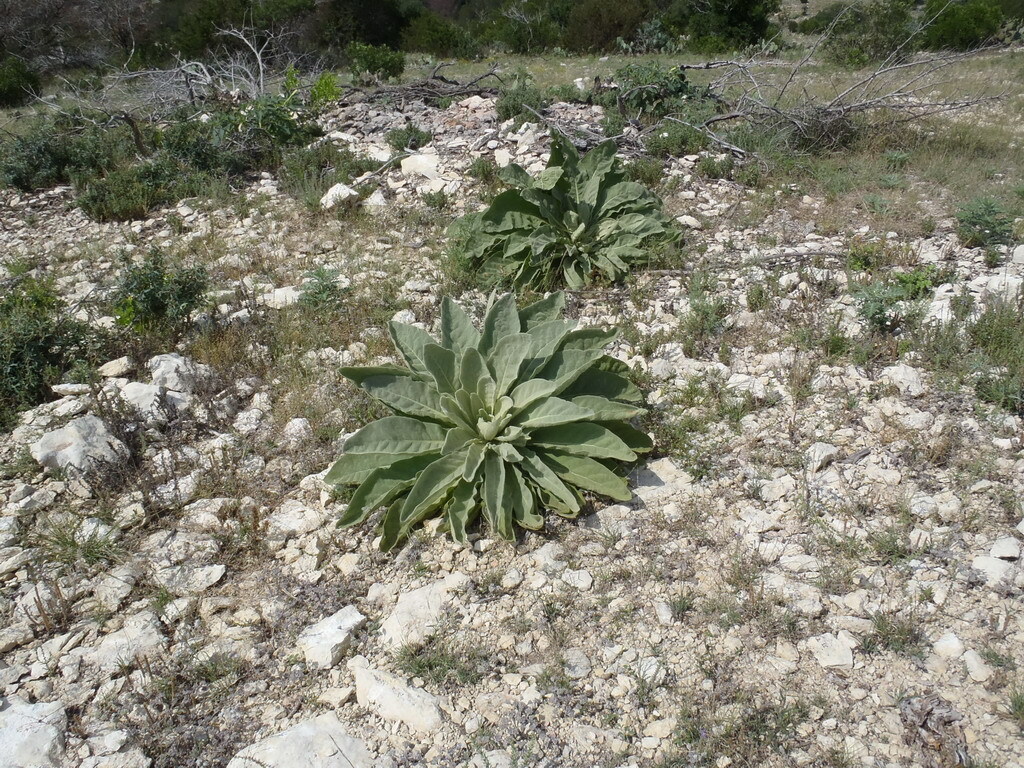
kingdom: Plantae
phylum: Tracheophyta
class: Magnoliopsida
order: Lamiales
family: Scrophulariaceae
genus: Verbascum
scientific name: Verbascum thapsus
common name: Common mullein
